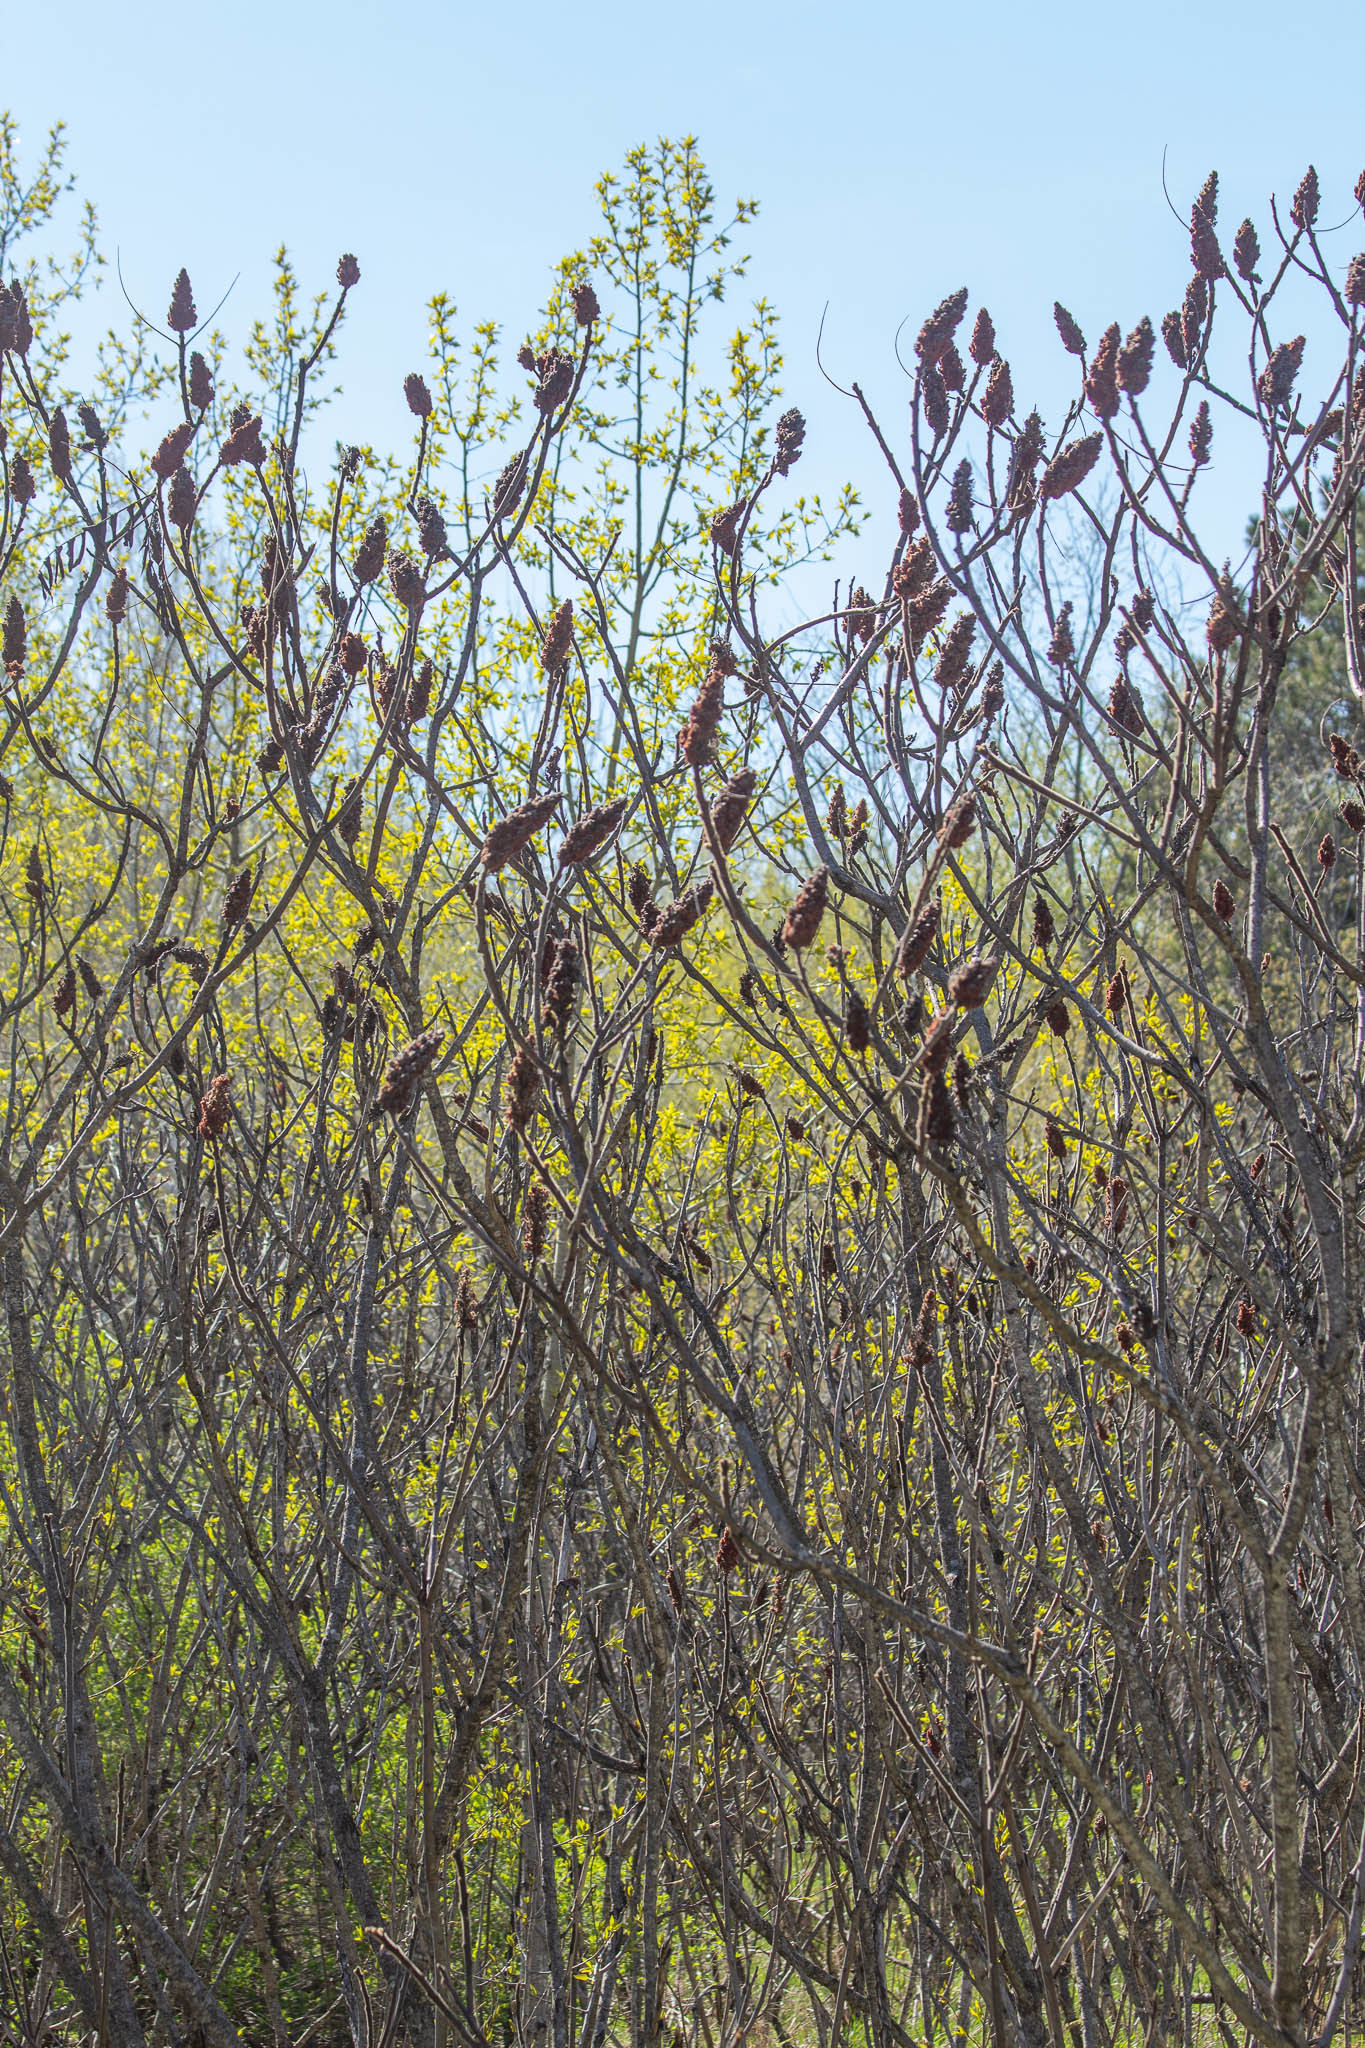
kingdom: Plantae
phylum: Tracheophyta
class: Magnoliopsida
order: Sapindales
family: Anacardiaceae
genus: Rhus
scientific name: Rhus typhina
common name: Staghorn sumac
